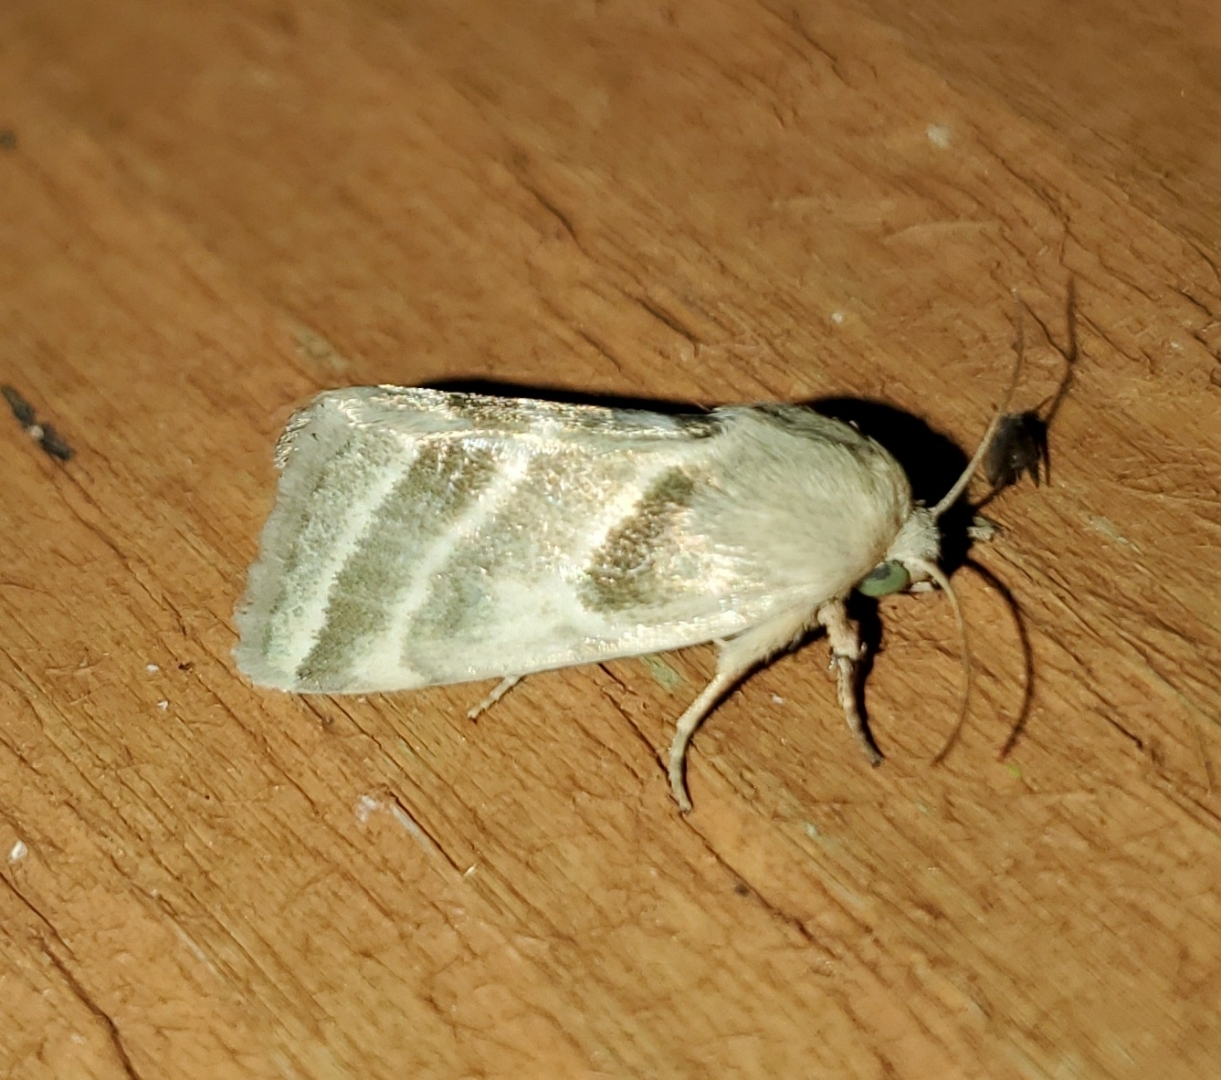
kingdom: Animalia
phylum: Arthropoda
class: Insecta
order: Lepidoptera
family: Noctuidae
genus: Schinia
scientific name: Schinia trifascia
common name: Three-lined flower moth
